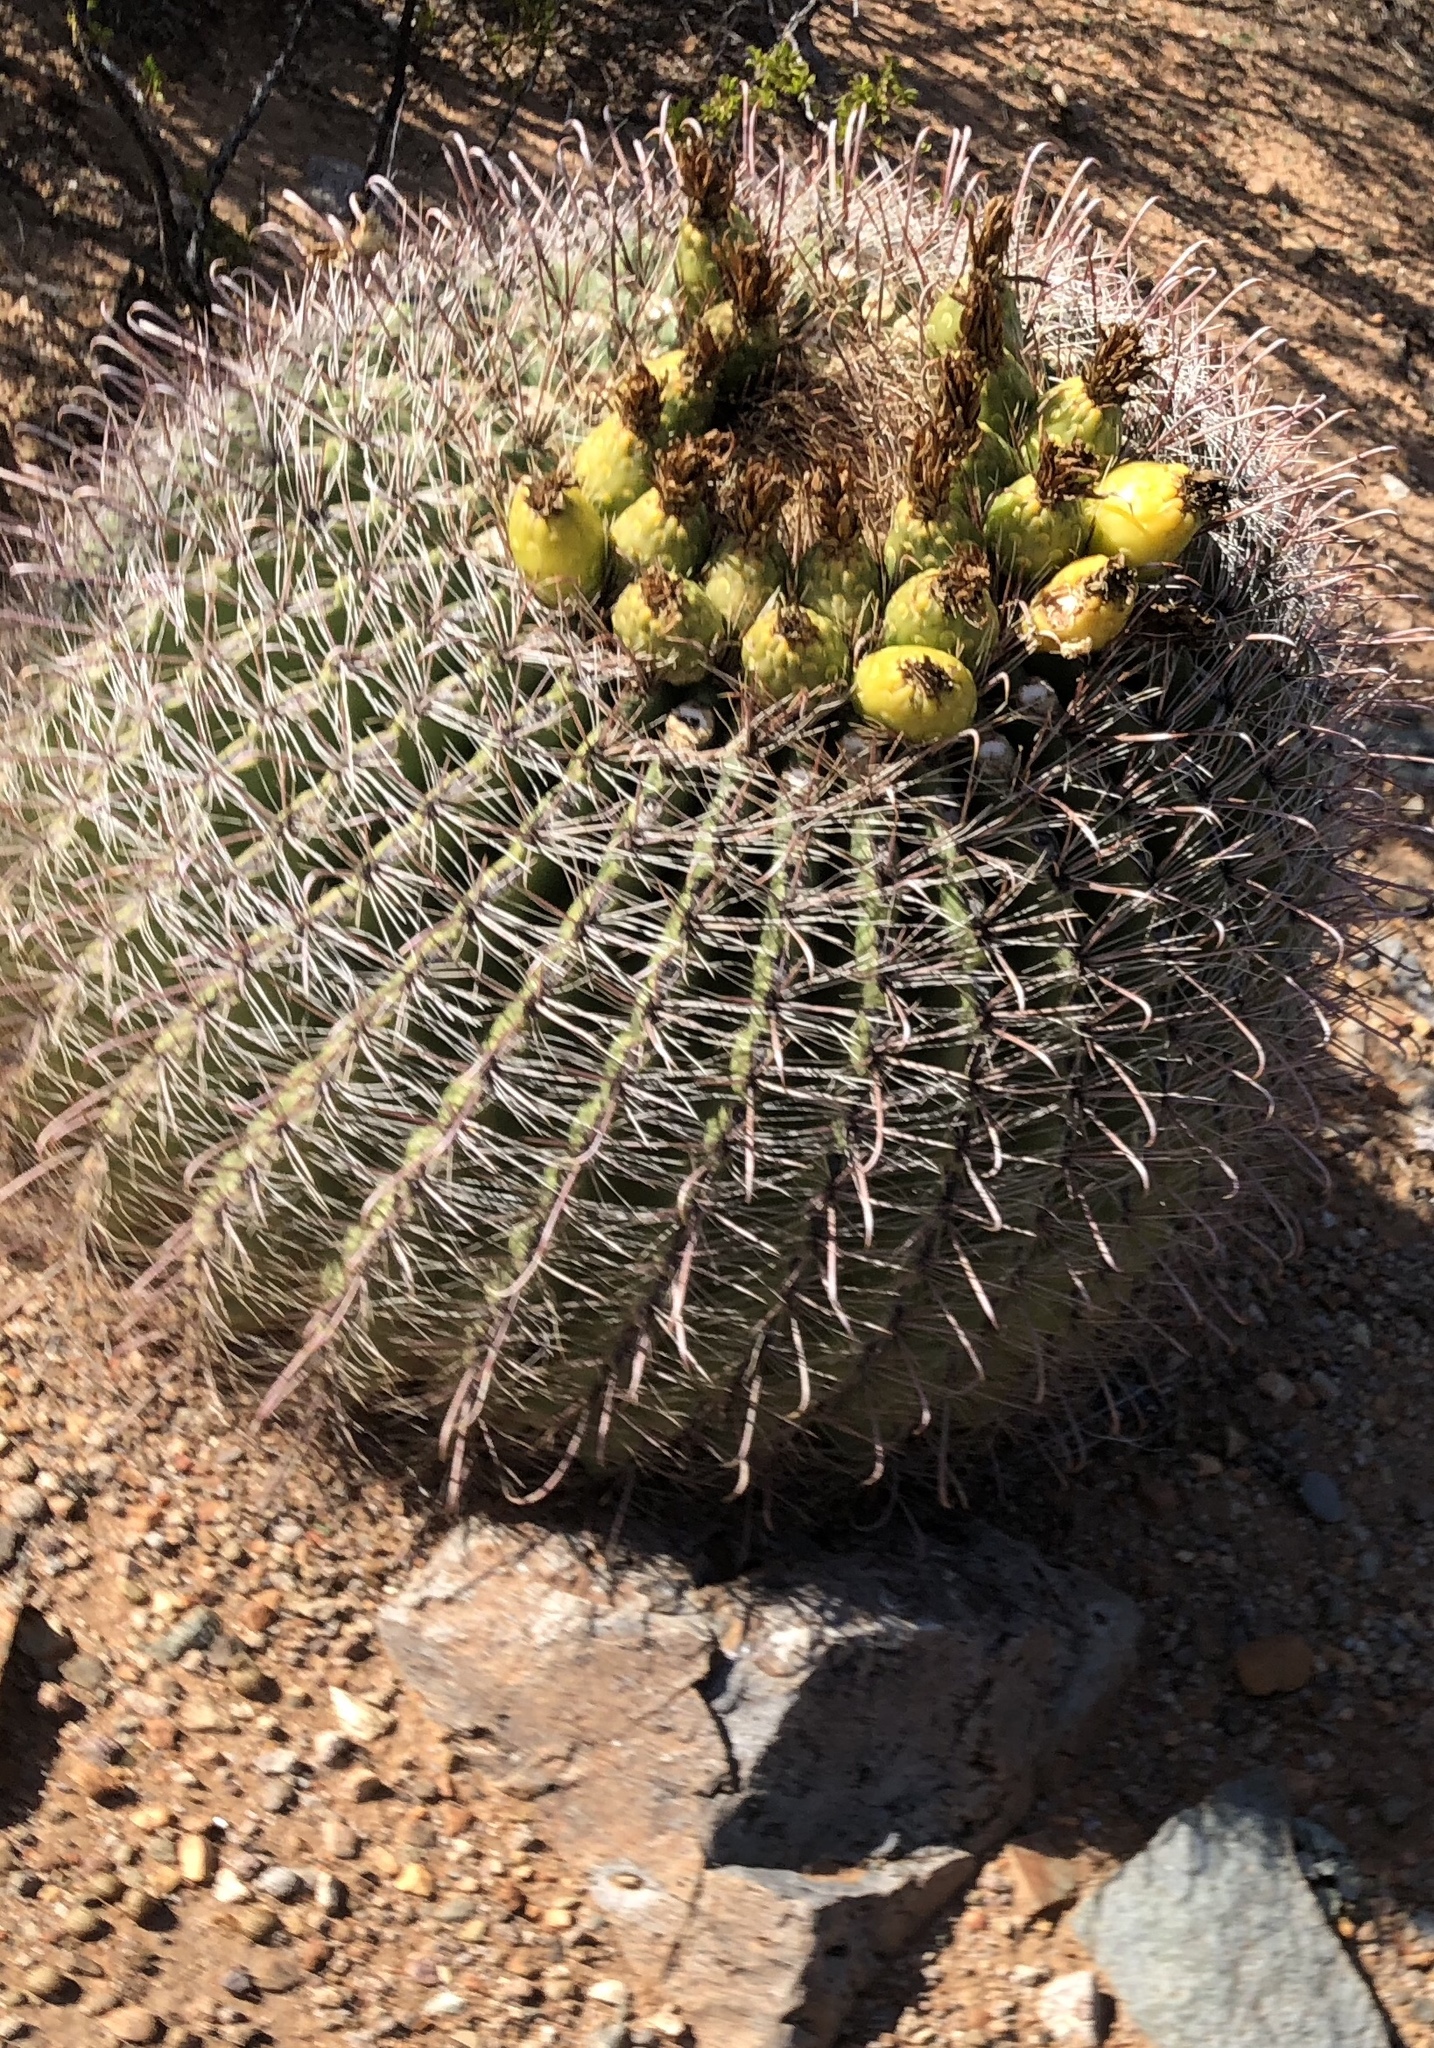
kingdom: Plantae
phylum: Tracheophyta
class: Magnoliopsida
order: Caryophyllales
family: Cactaceae
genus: Ferocactus
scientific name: Ferocactus wislizeni
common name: Candy barrel cactus
